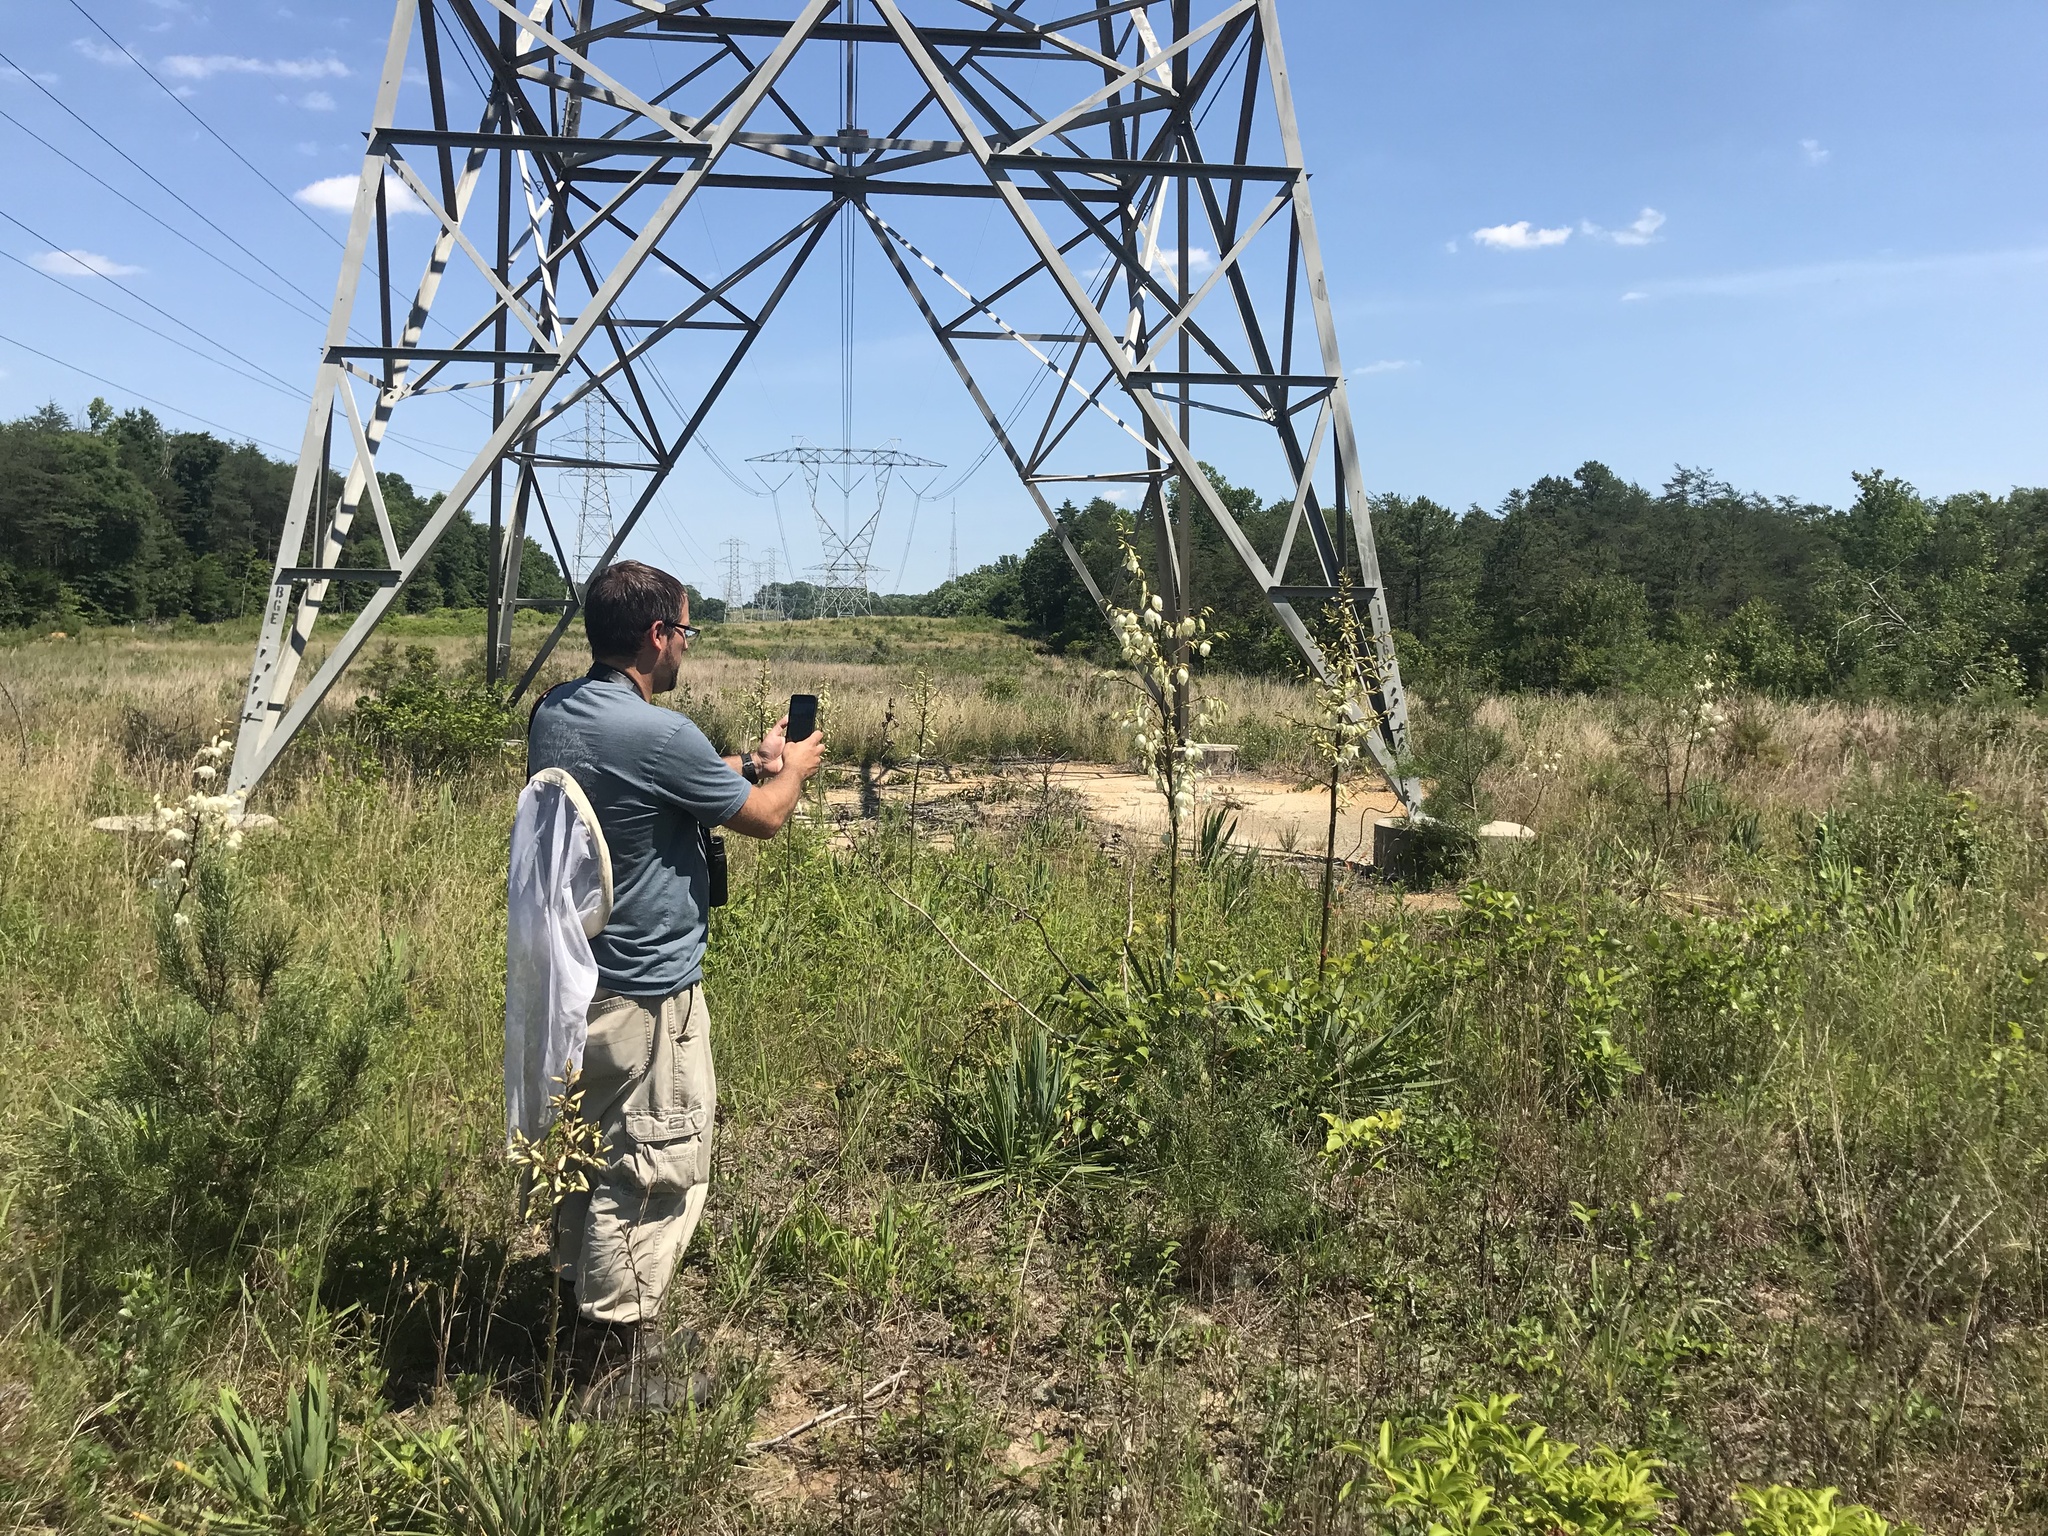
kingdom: Plantae
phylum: Tracheophyta
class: Liliopsida
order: Asparagales
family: Asparagaceae
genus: Yucca
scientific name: Yucca filamentosa
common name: Adam's-needle
